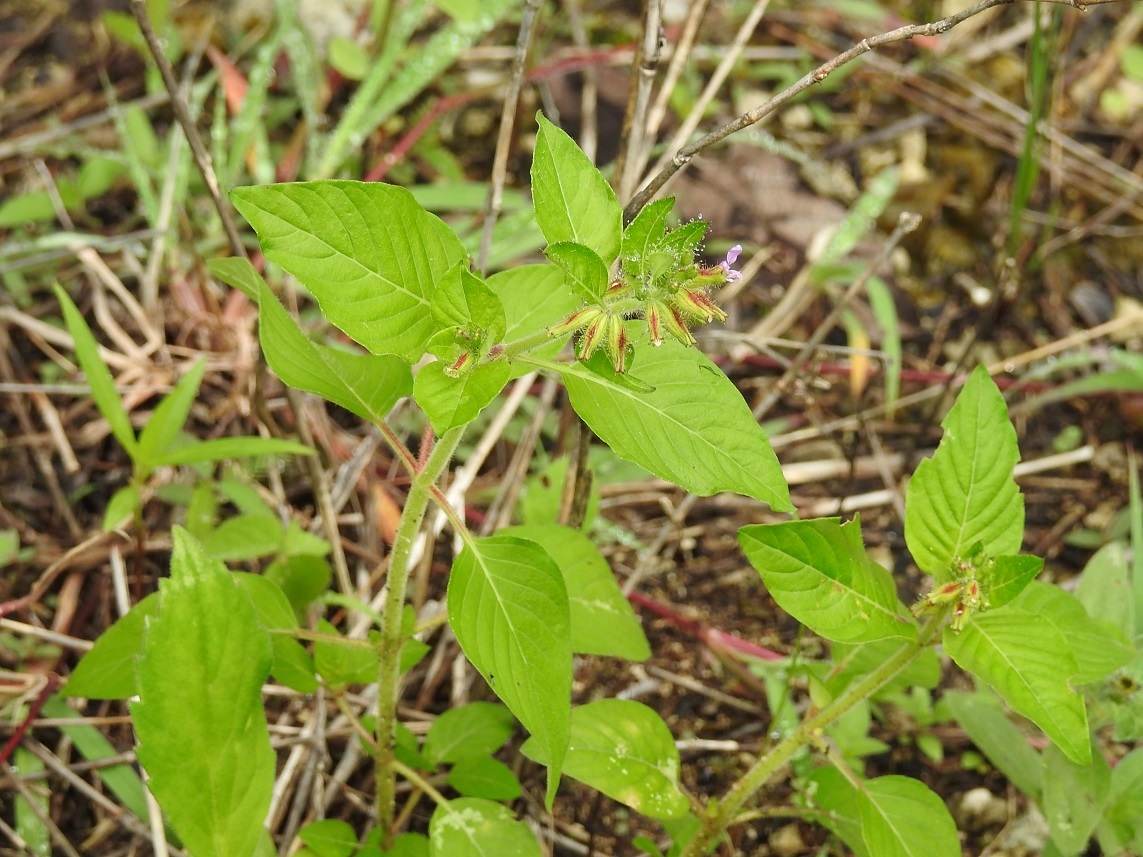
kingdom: Plantae
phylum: Tracheophyta
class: Magnoliopsida
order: Myrtales
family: Lythraceae
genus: Cuphea
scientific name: Cuphea wrightii
